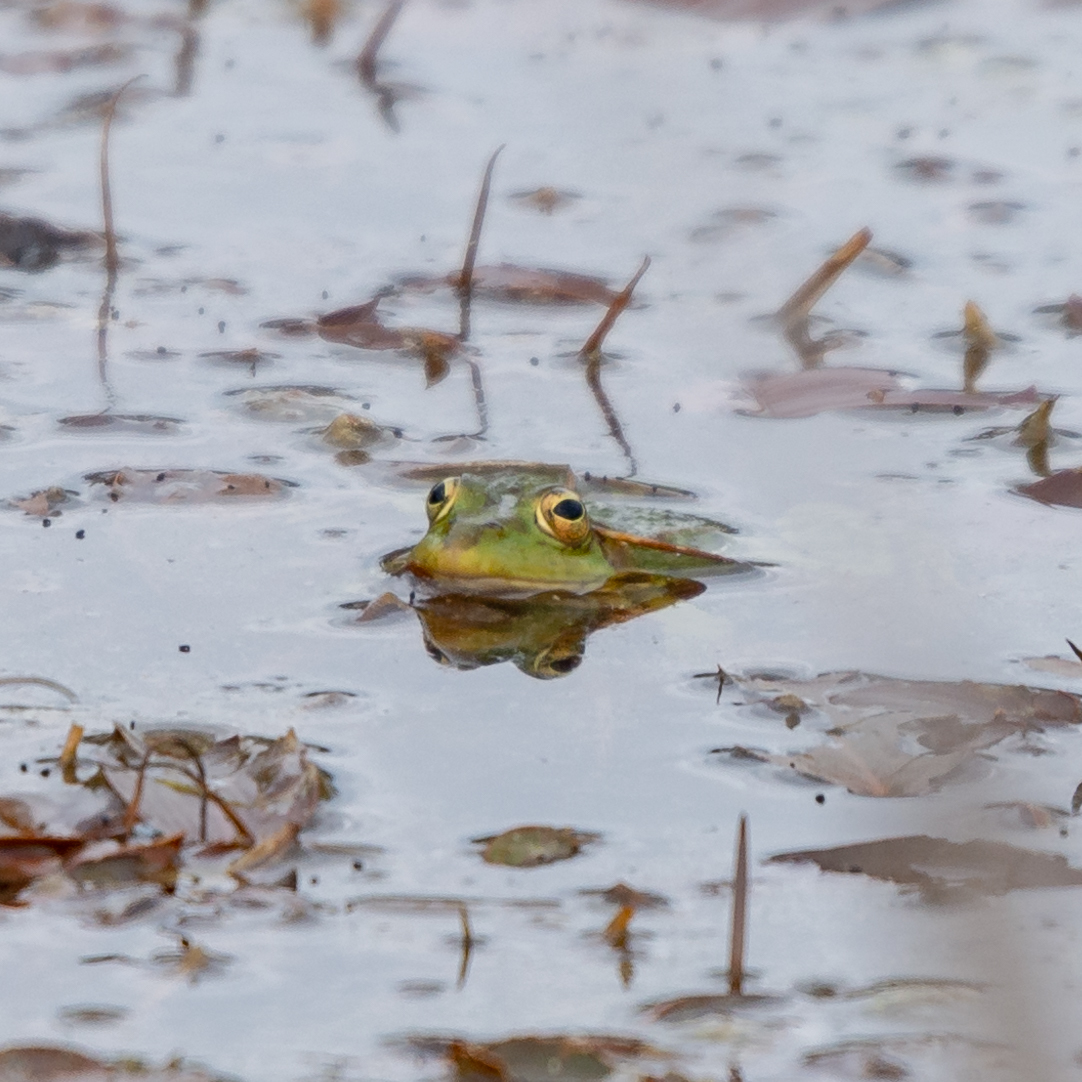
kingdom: Animalia
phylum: Chordata
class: Amphibia
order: Anura
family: Ranidae
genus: Pelophylax
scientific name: Pelophylax perezi
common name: Perez's frog
